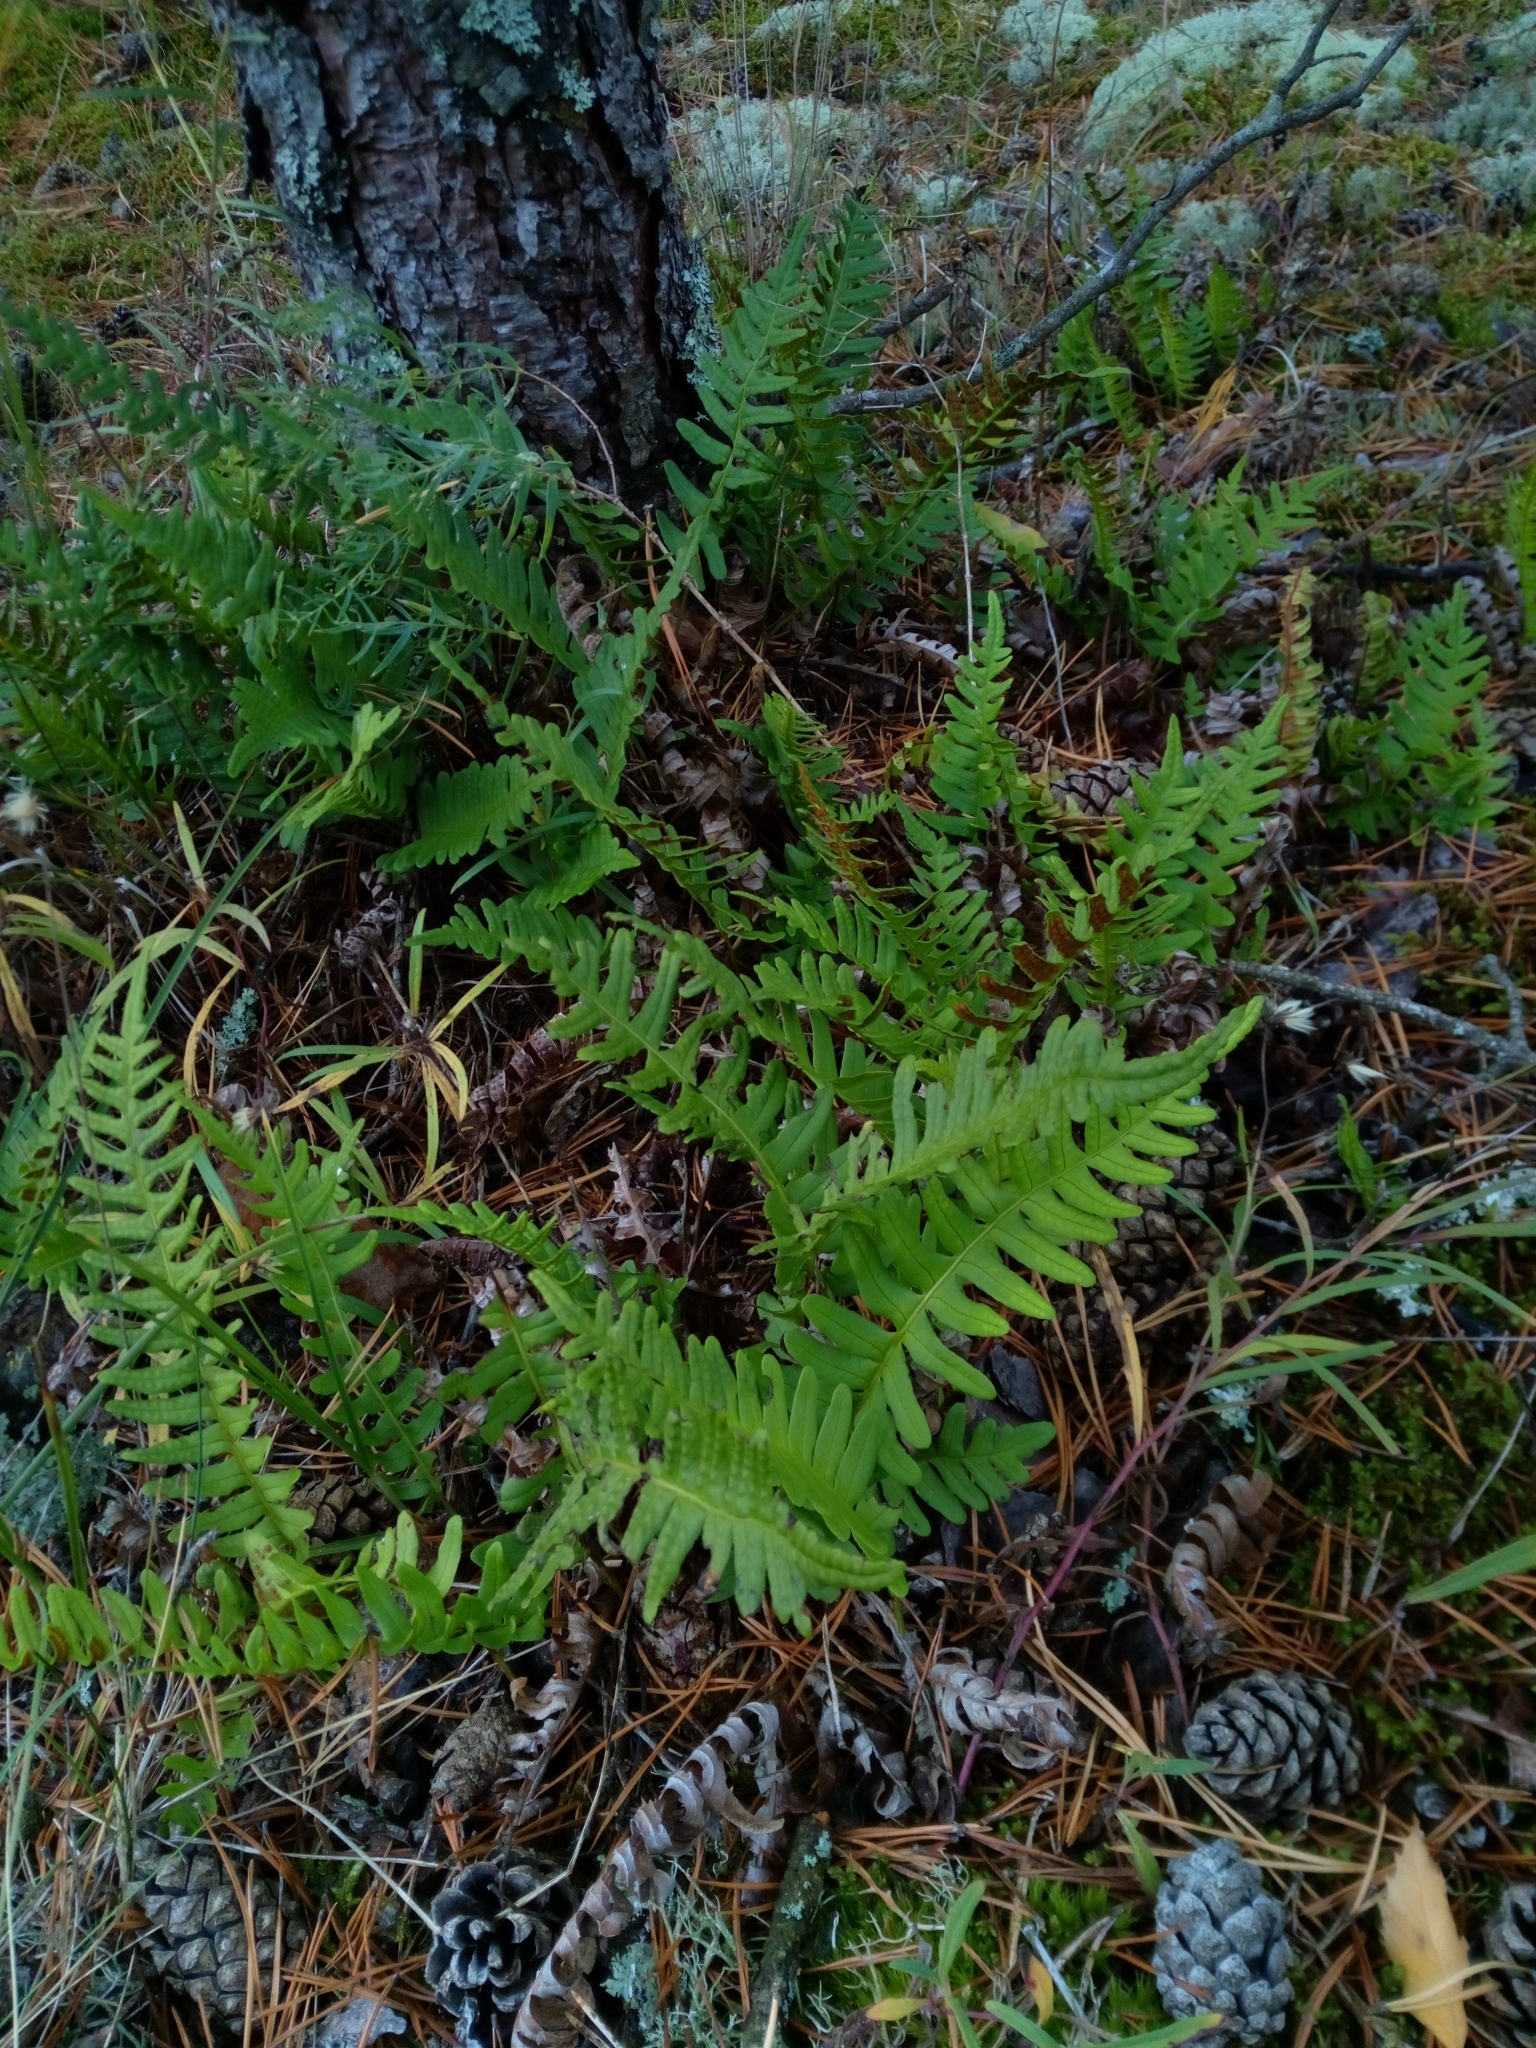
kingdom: Plantae
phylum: Tracheophyta
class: Polypodiopsida
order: Polypodiales
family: Polypodiaceae
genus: Polypodium
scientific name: Polypodium vulgare
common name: Common polypody
